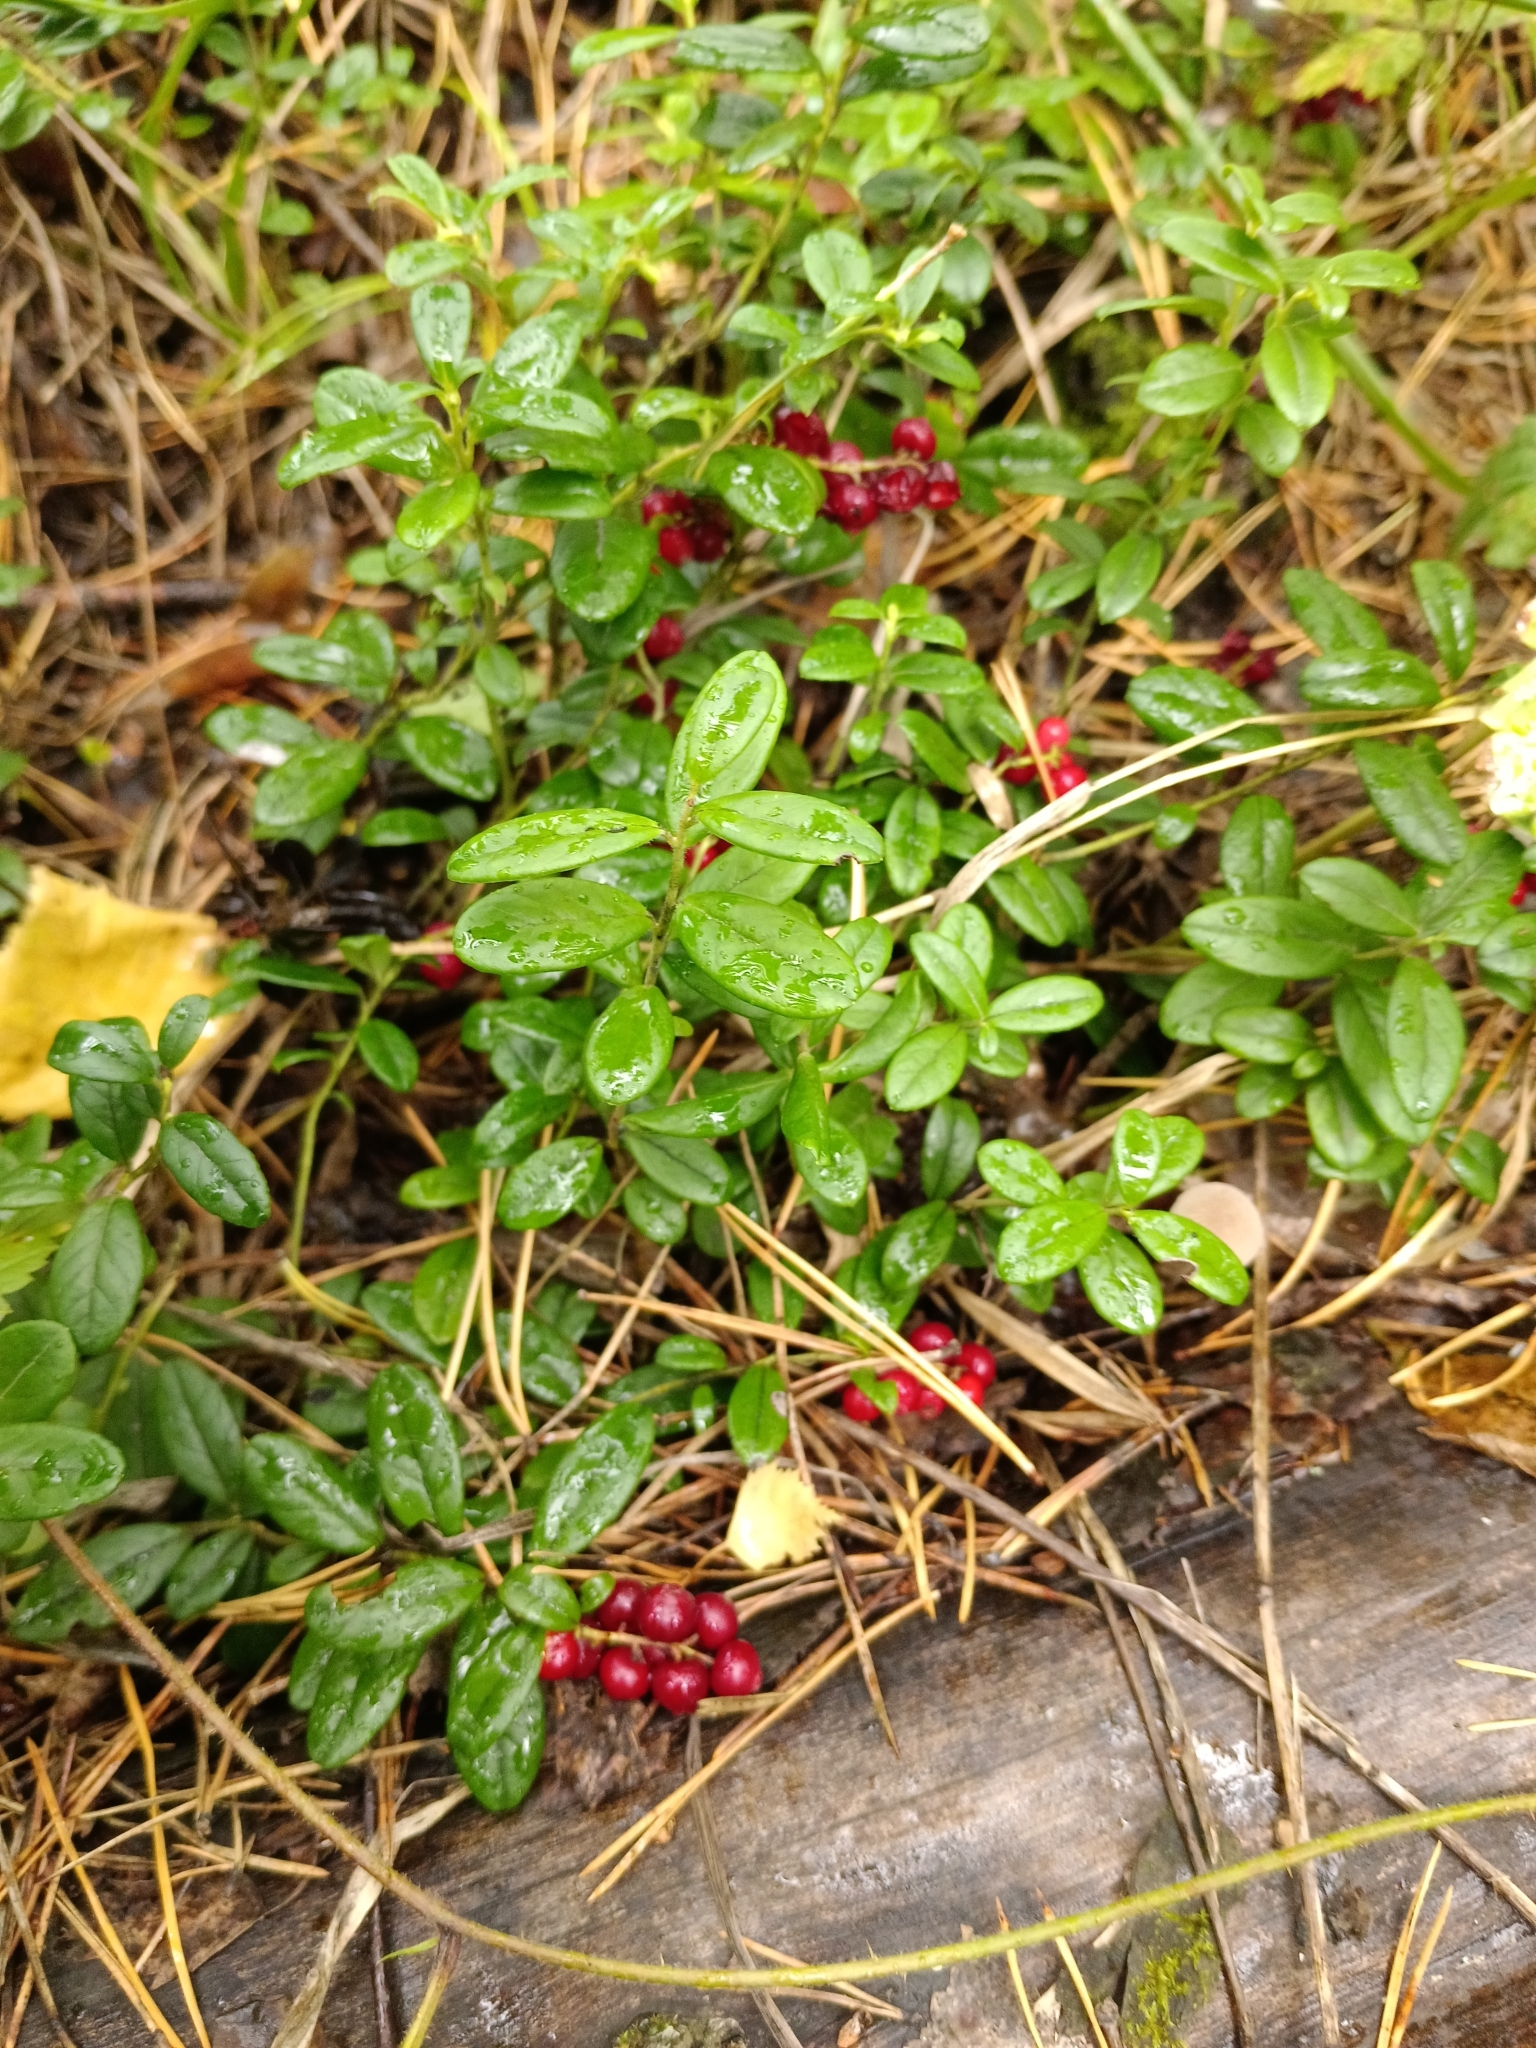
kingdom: Plantae
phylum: Tracheophyta
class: Magnoliopsida
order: Ericales
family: Ericaceae
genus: Vaccinium
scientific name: Vaccinium vitis-idaea
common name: Cowberry
